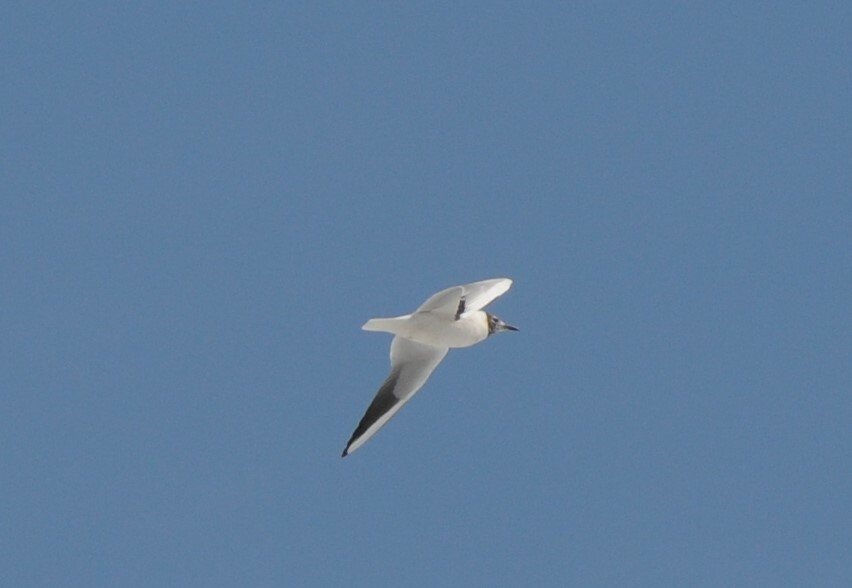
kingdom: Animalia
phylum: Chordata
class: Aves
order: Charadriiformes
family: Laridae
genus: Chroicocephalus
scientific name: Chroicocephalus ridibundus
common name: Black-headed gull
